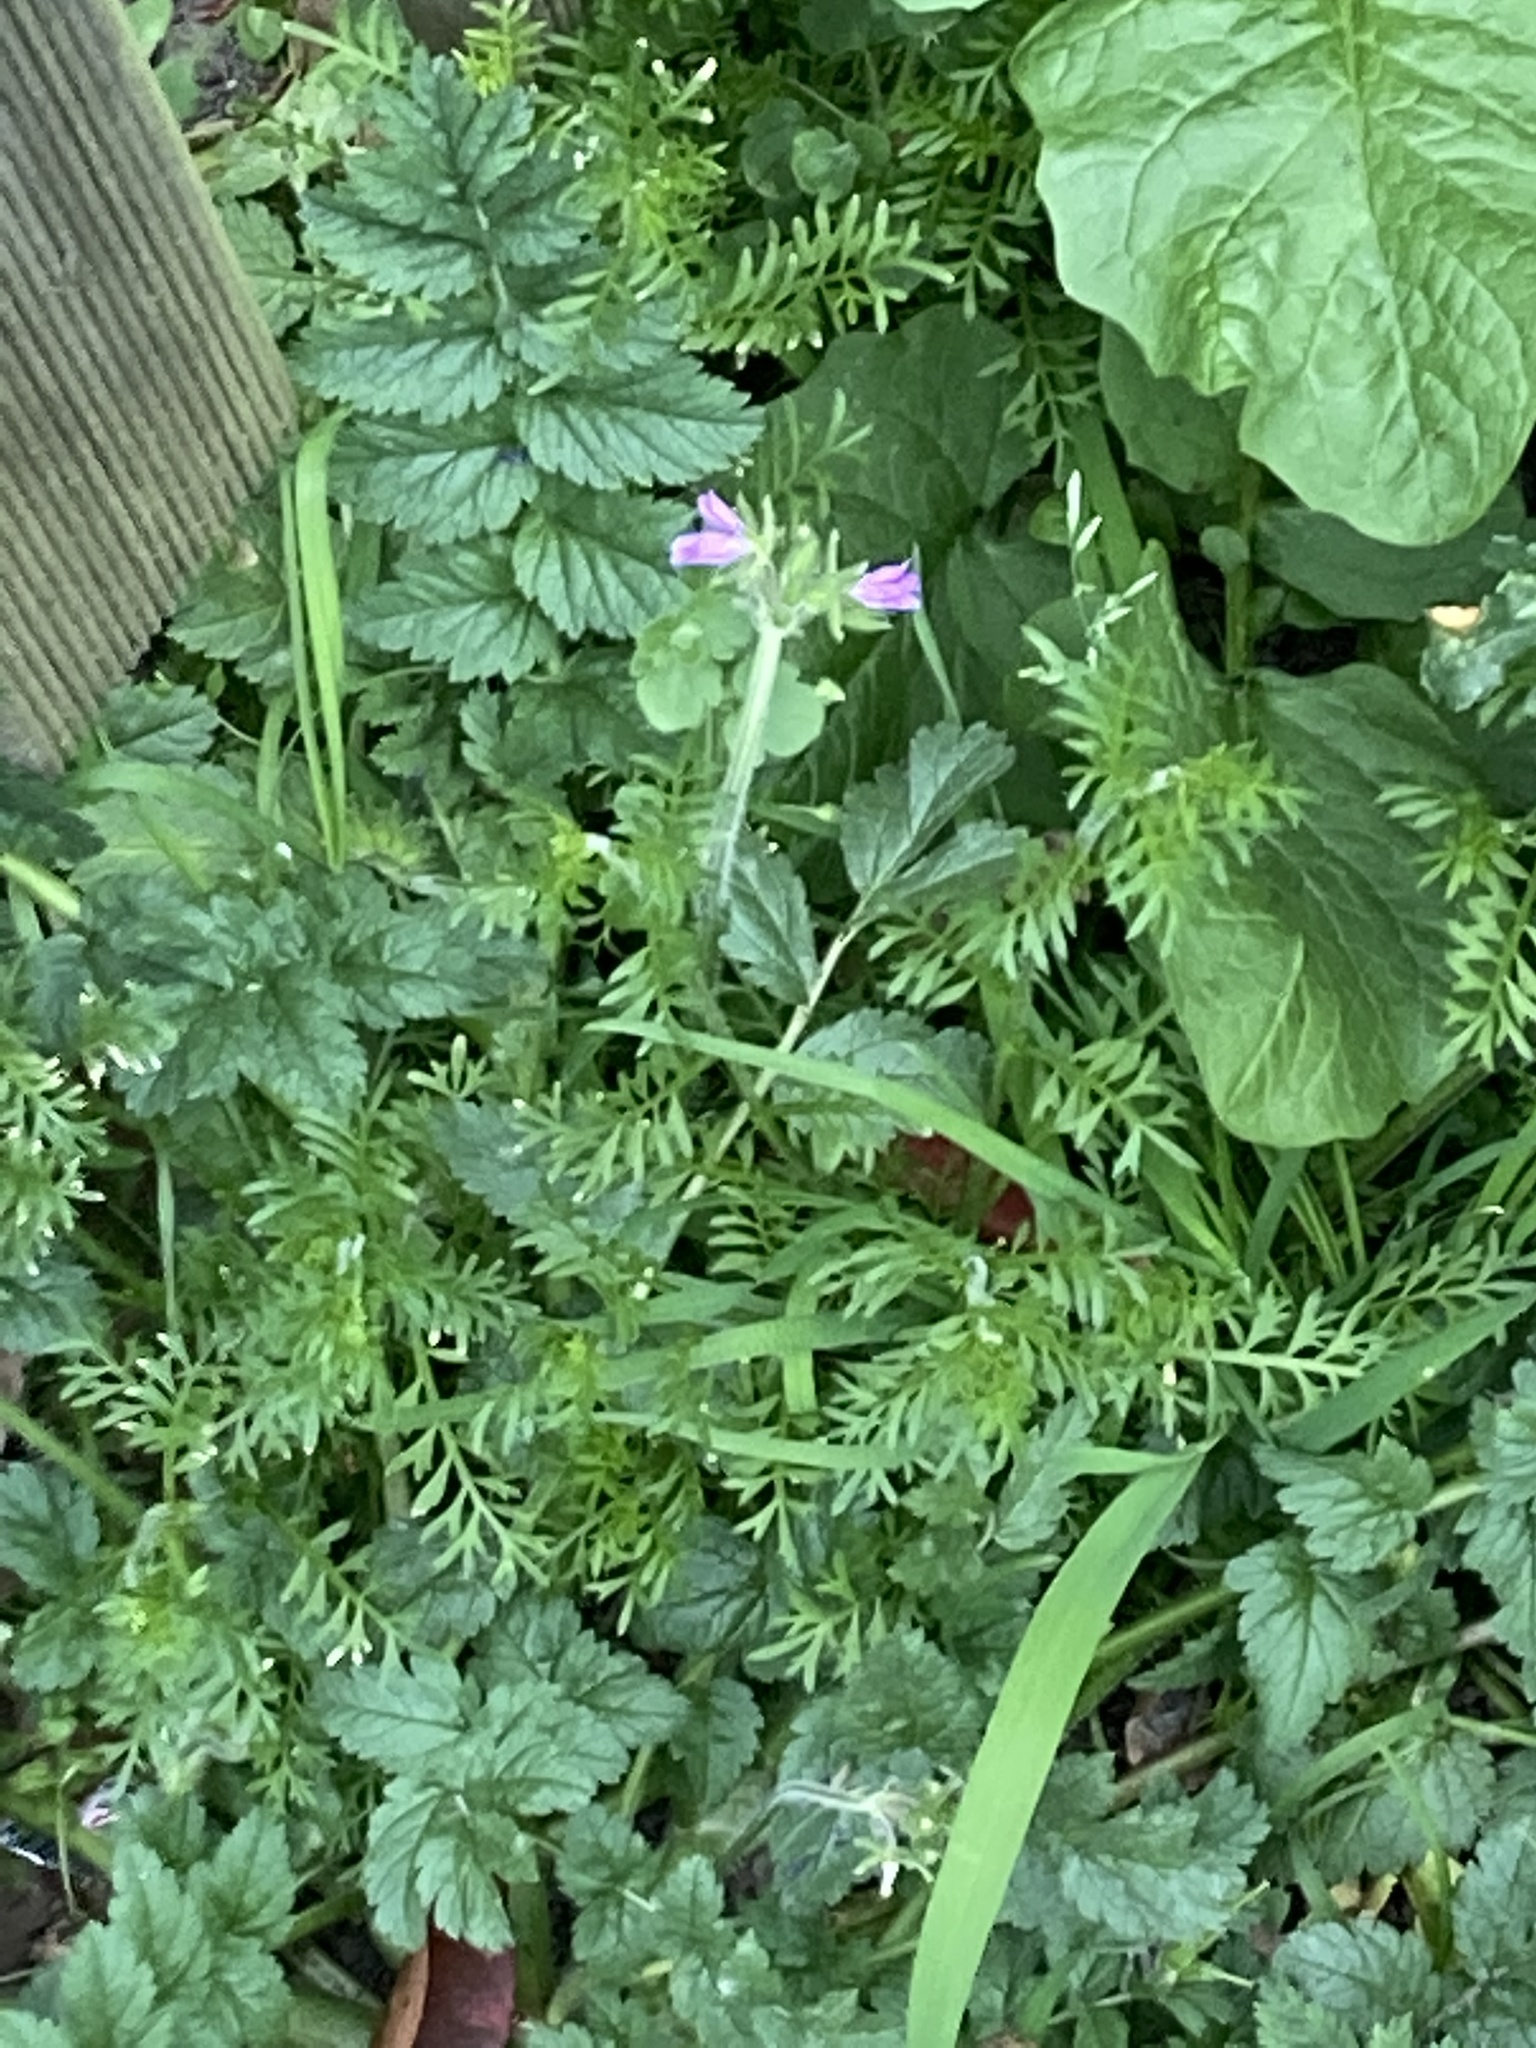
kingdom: Plantae
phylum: Tracheophyta
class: Magnoliopsida
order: Geraniales
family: Geraniaceae
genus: Erodium
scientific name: Erodium moschatum
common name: Musk stork's-bill
